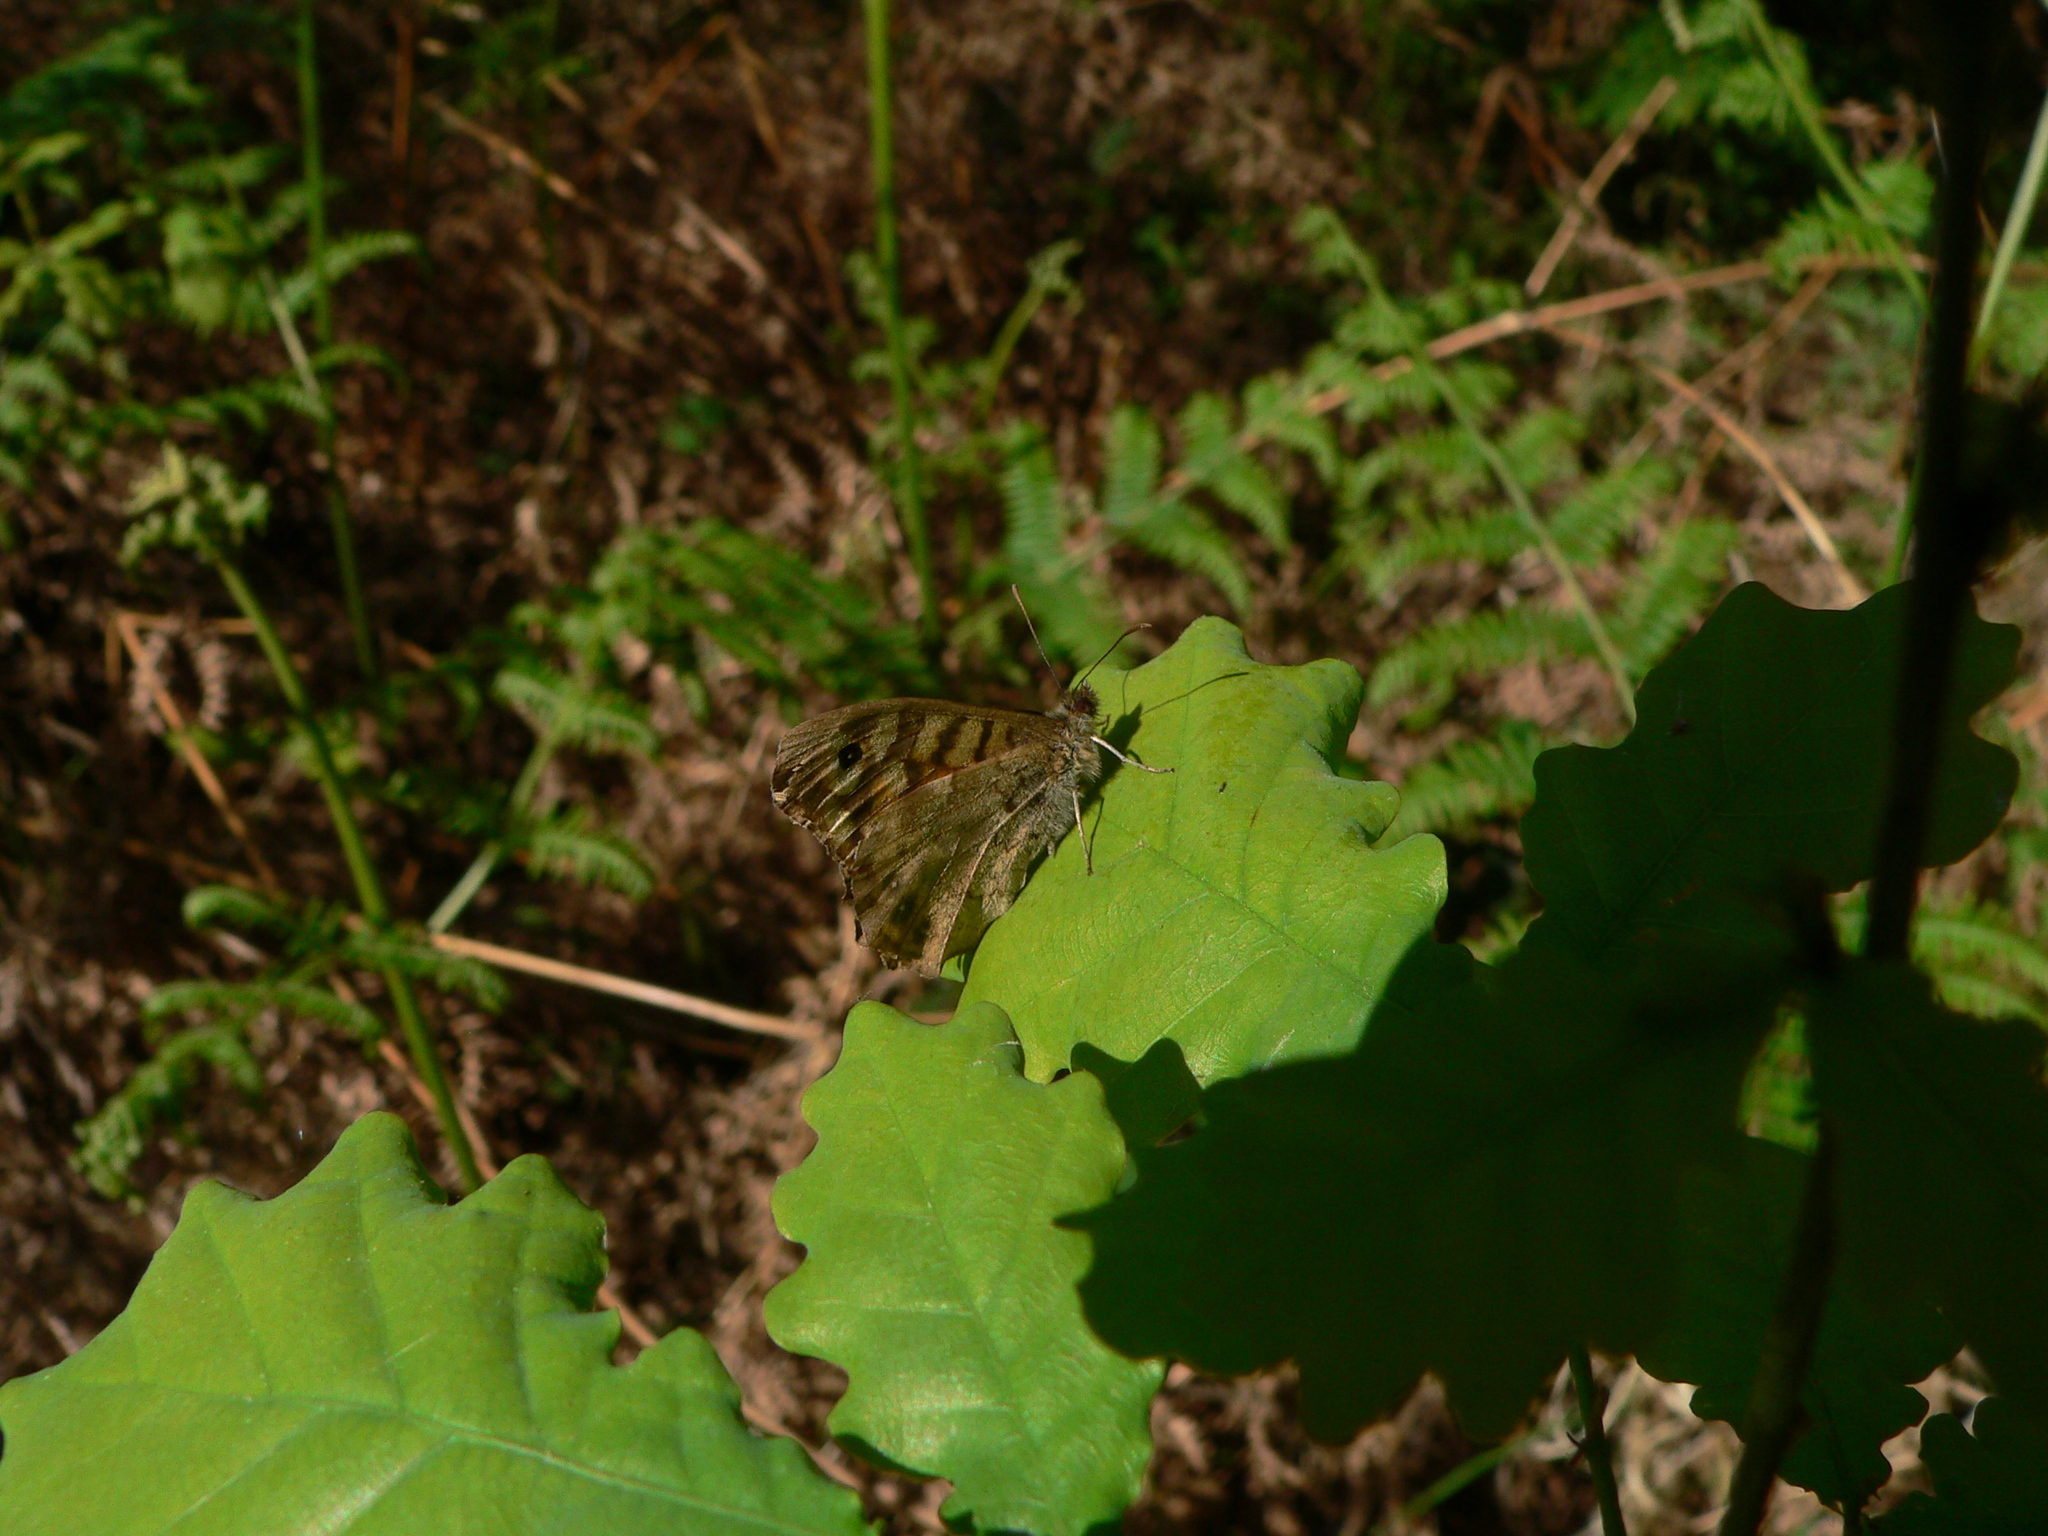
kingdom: Animalia
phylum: Arthropoda
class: Insecta
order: Lepidoptera
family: Nymphalidae
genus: Pararge
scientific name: Pararge aegeria
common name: Speckled wood
